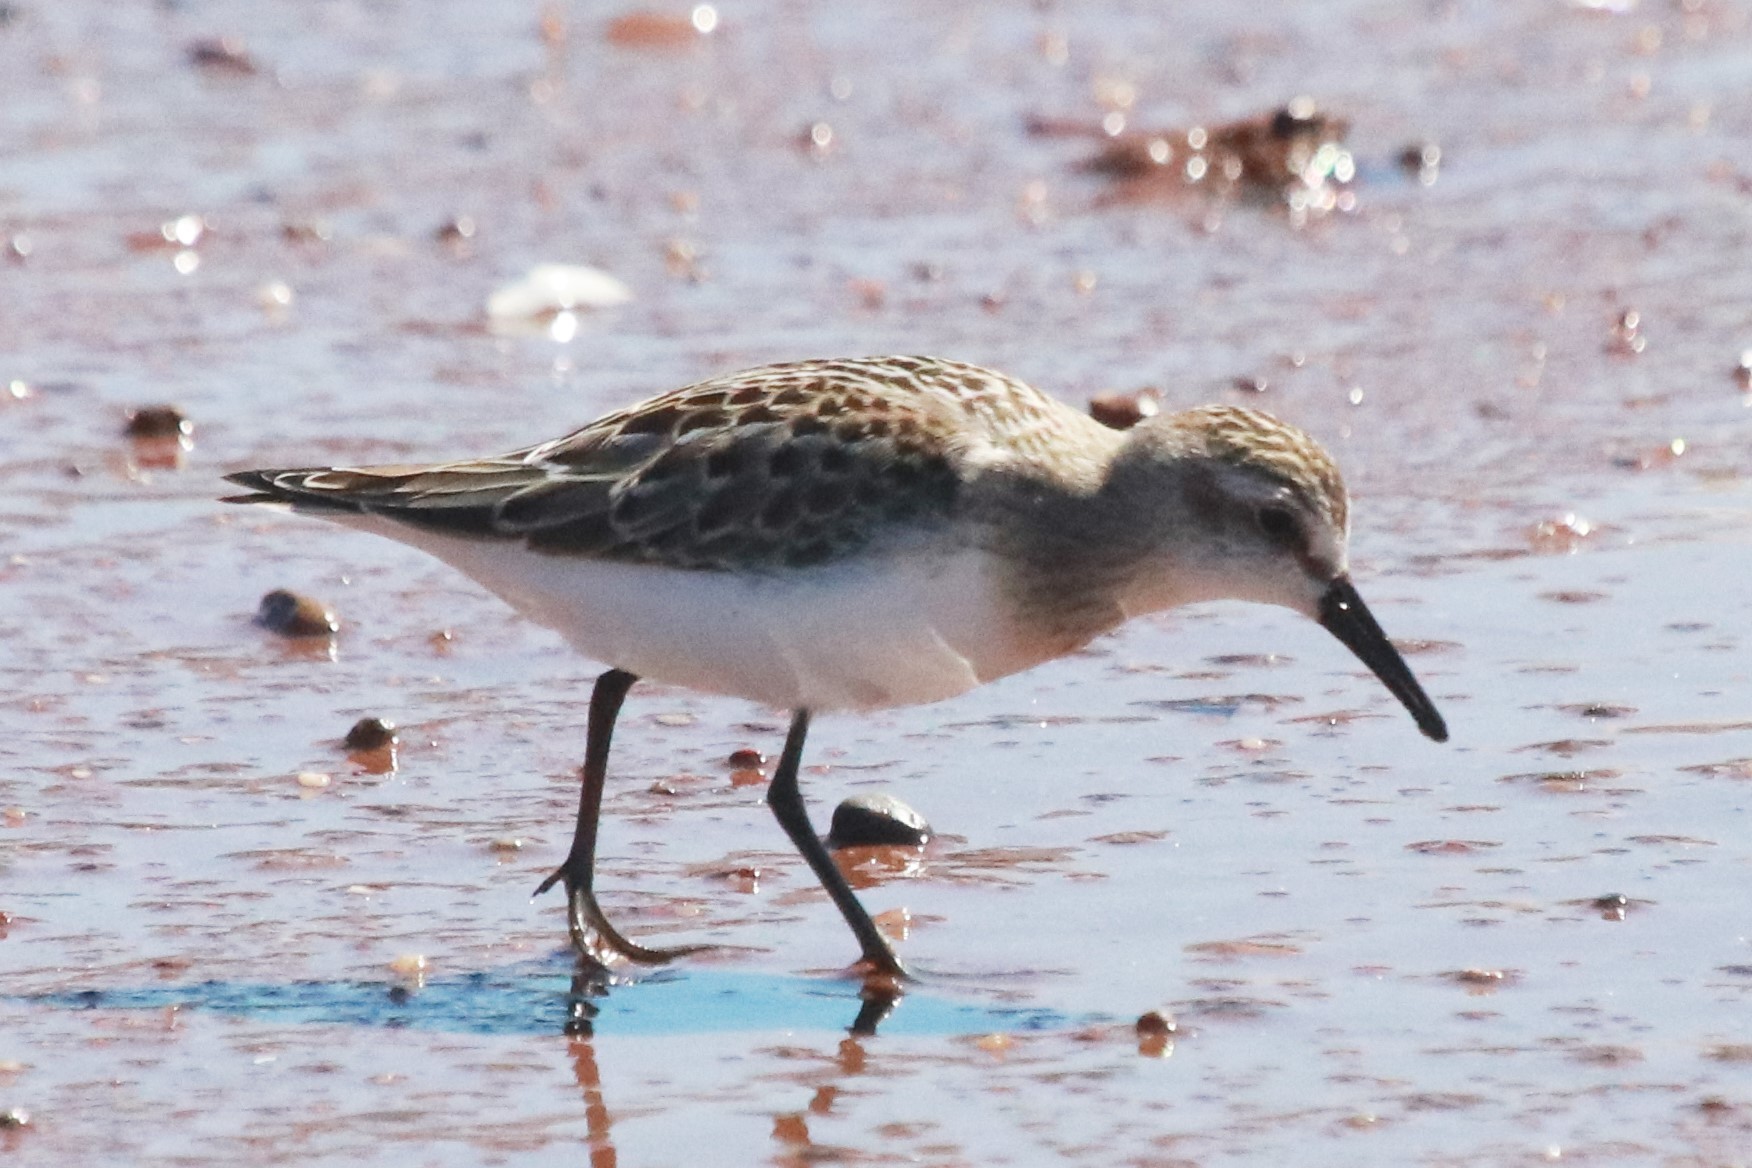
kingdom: Animalia
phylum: Chordata
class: Aves
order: Charadriiformes
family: Scolopacidae
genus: Calidris
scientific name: Calidris pusilla
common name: Semipalmated sandpiper
